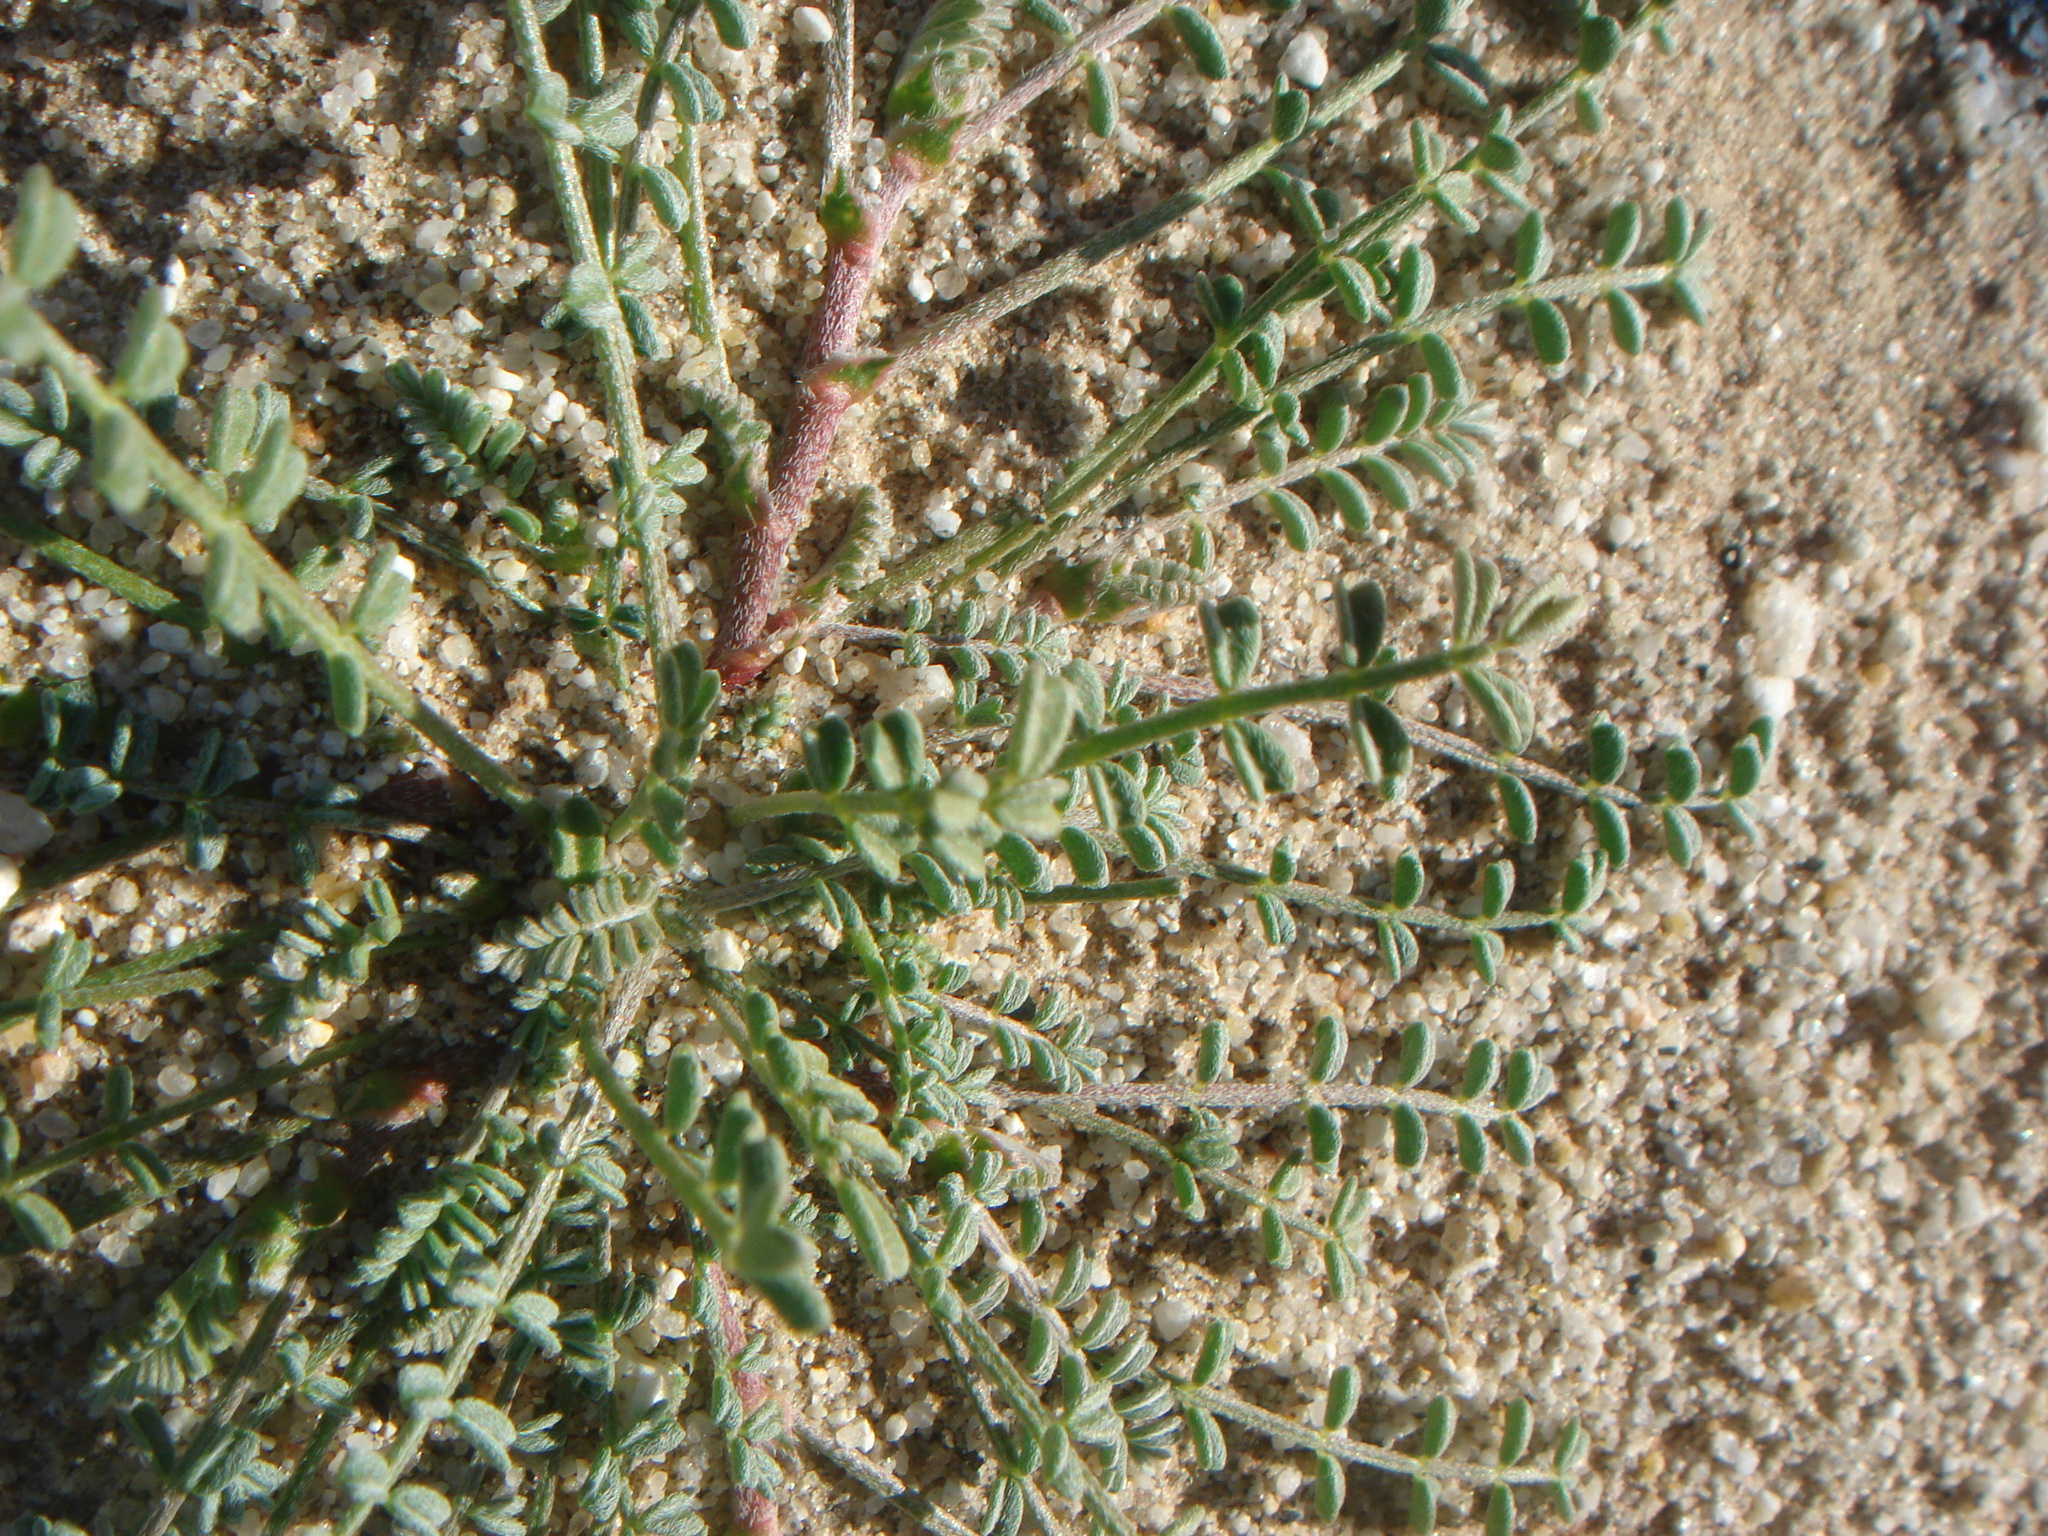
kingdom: Plantae
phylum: Tracheophyta
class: Magnoliopsida
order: Fabales
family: Fabaceae
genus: Astragalus
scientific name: Astragalus didymocarpus
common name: Dwarf white milkvetch
